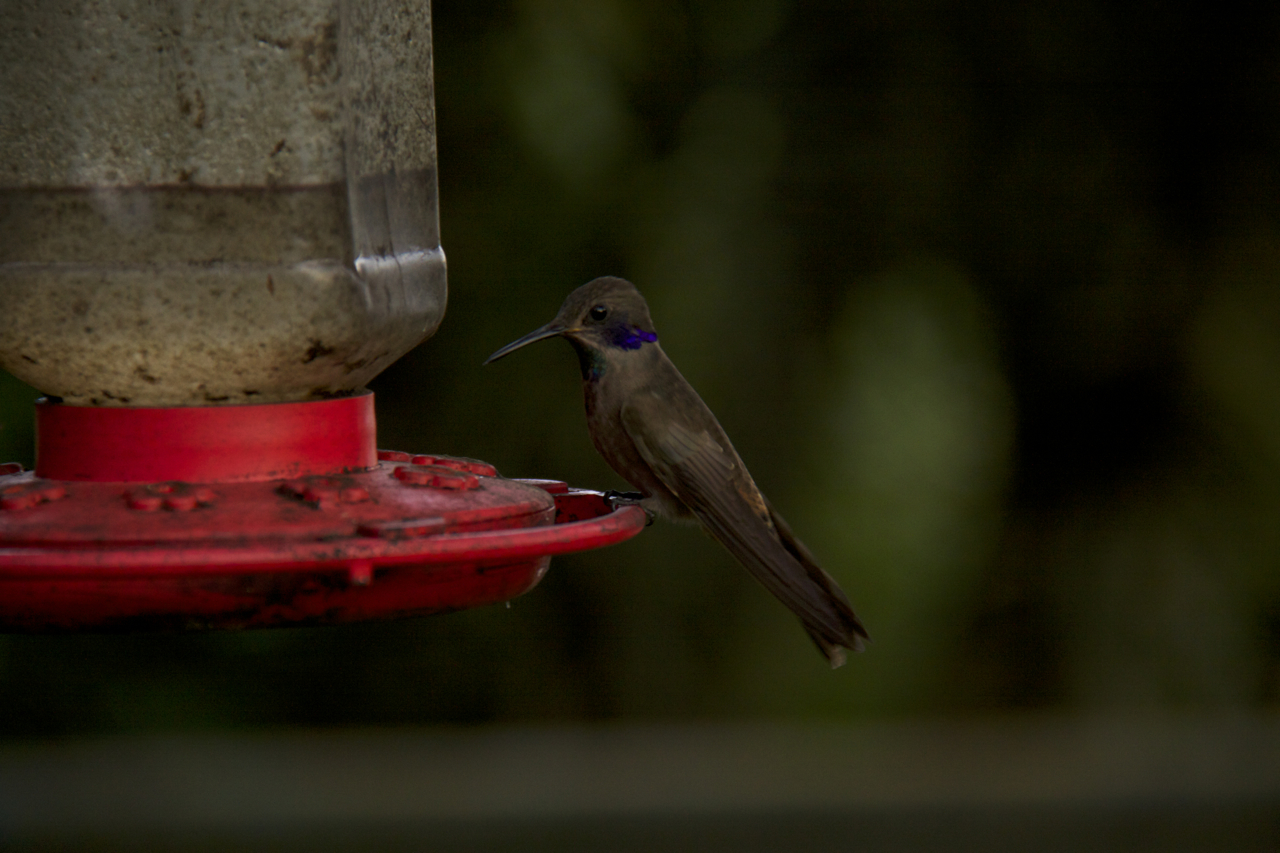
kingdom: Animalia
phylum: Chordata
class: Aves
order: Apodiformes
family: Trochilidae
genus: Colibri
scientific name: Colibri delphinae
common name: Brown violetear
